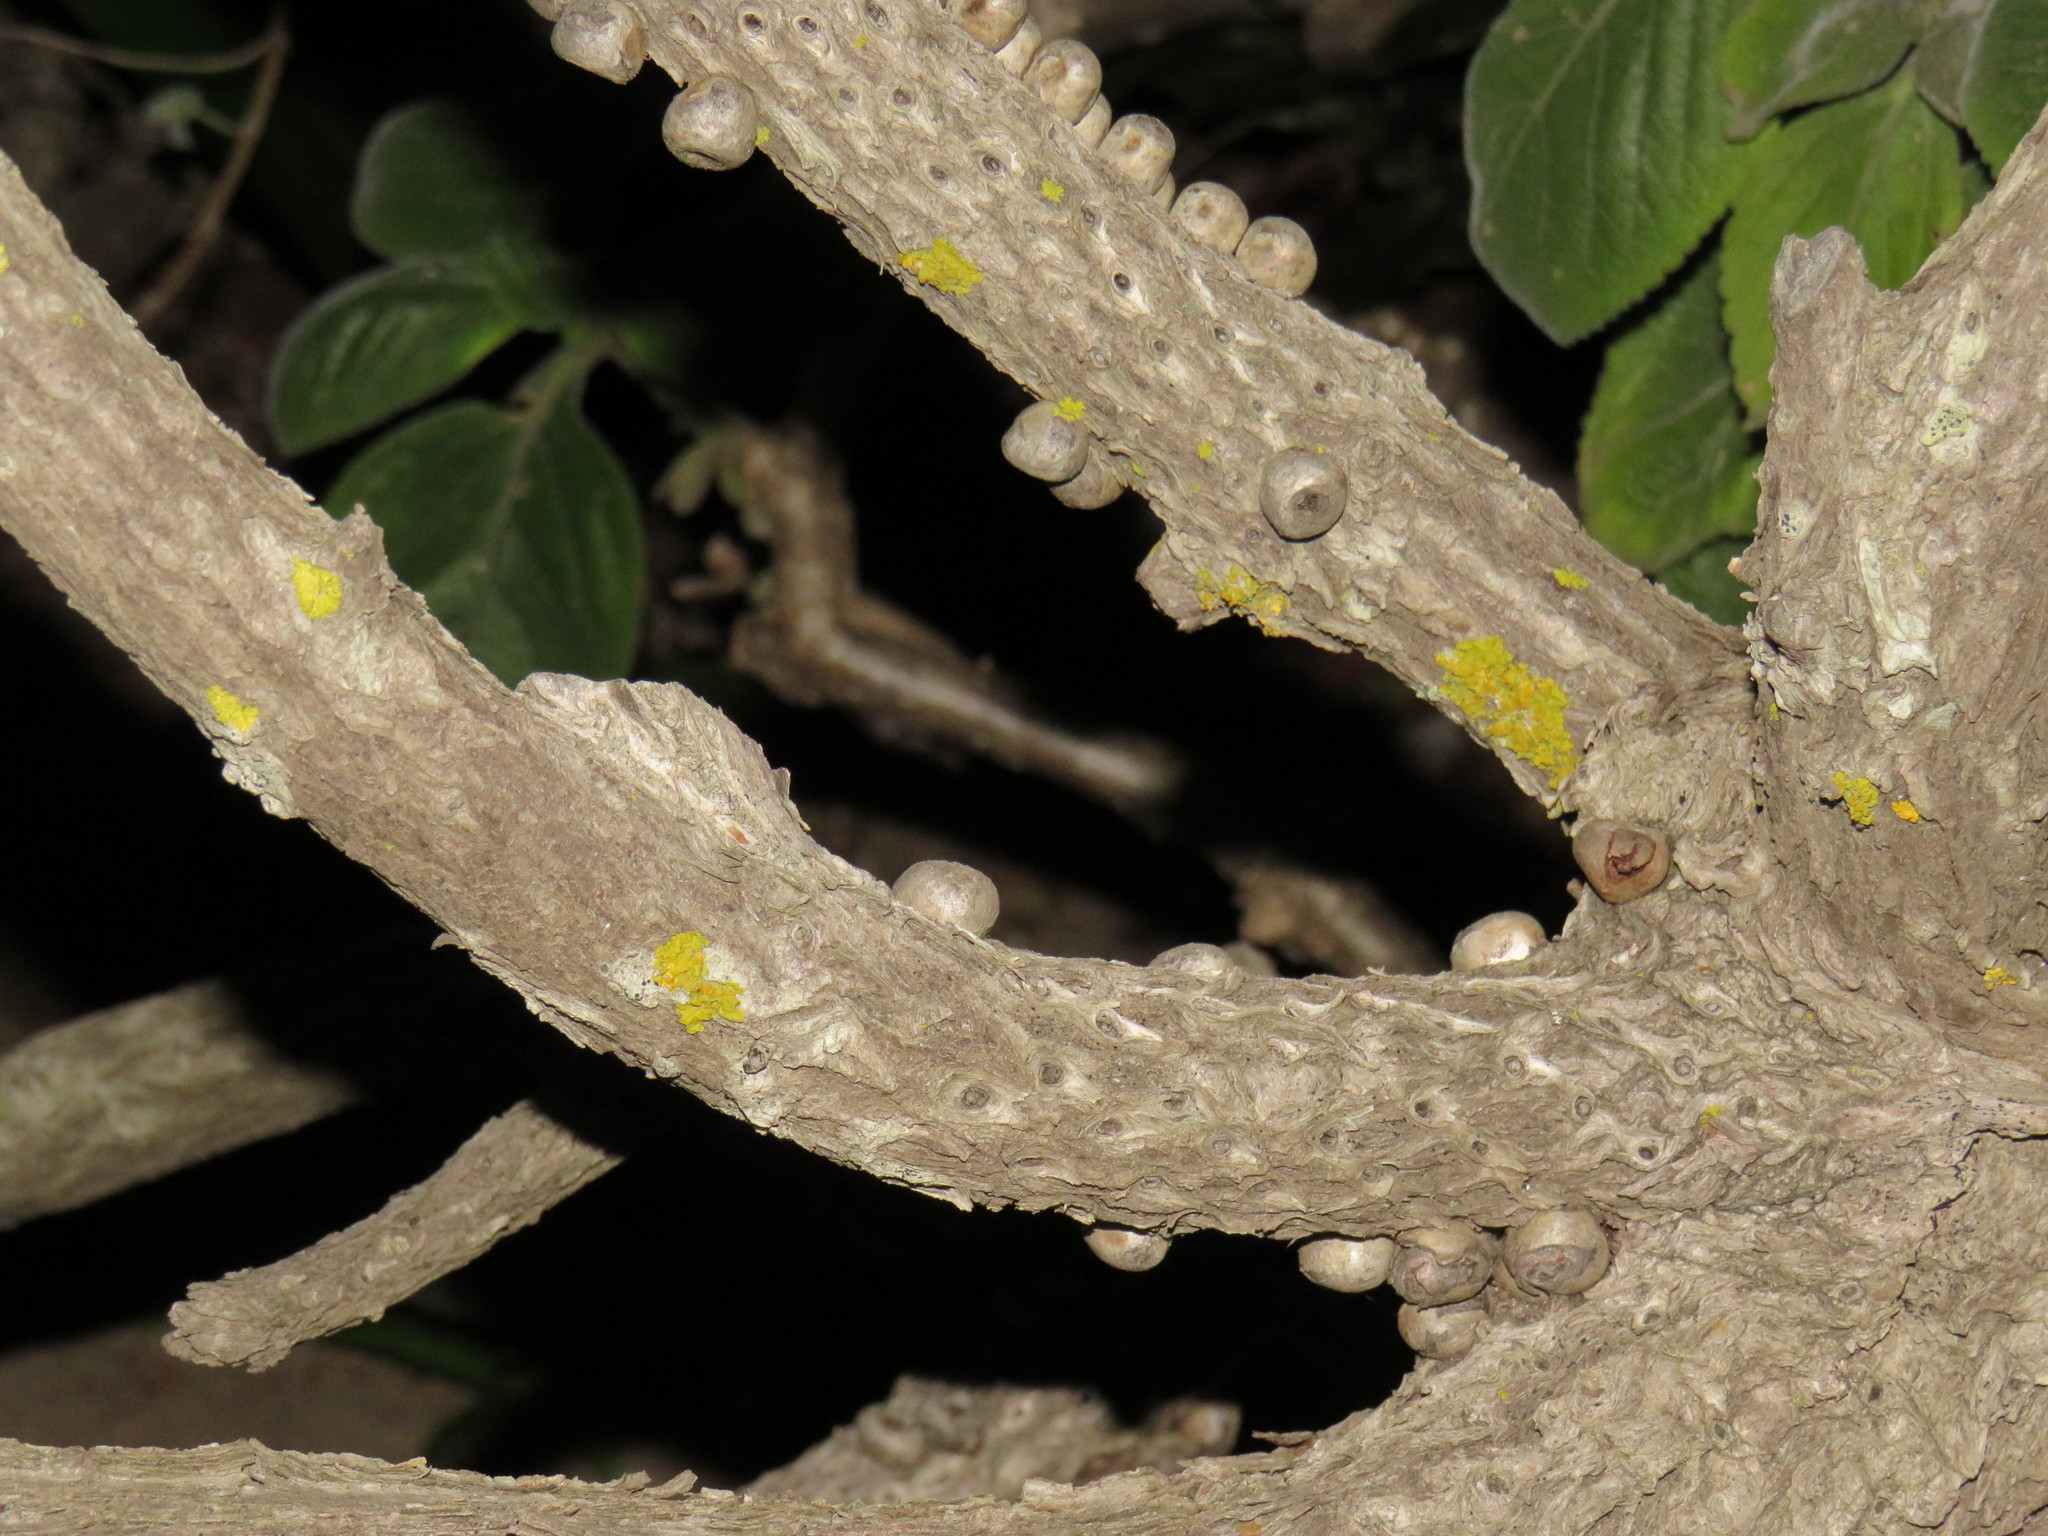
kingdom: Fungi
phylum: Ascomycota
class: Lecanoromycetes
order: Teloschistales
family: Teloschistaceae
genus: Xanthoria
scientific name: Xanthoria parietina
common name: Common orange lichen
